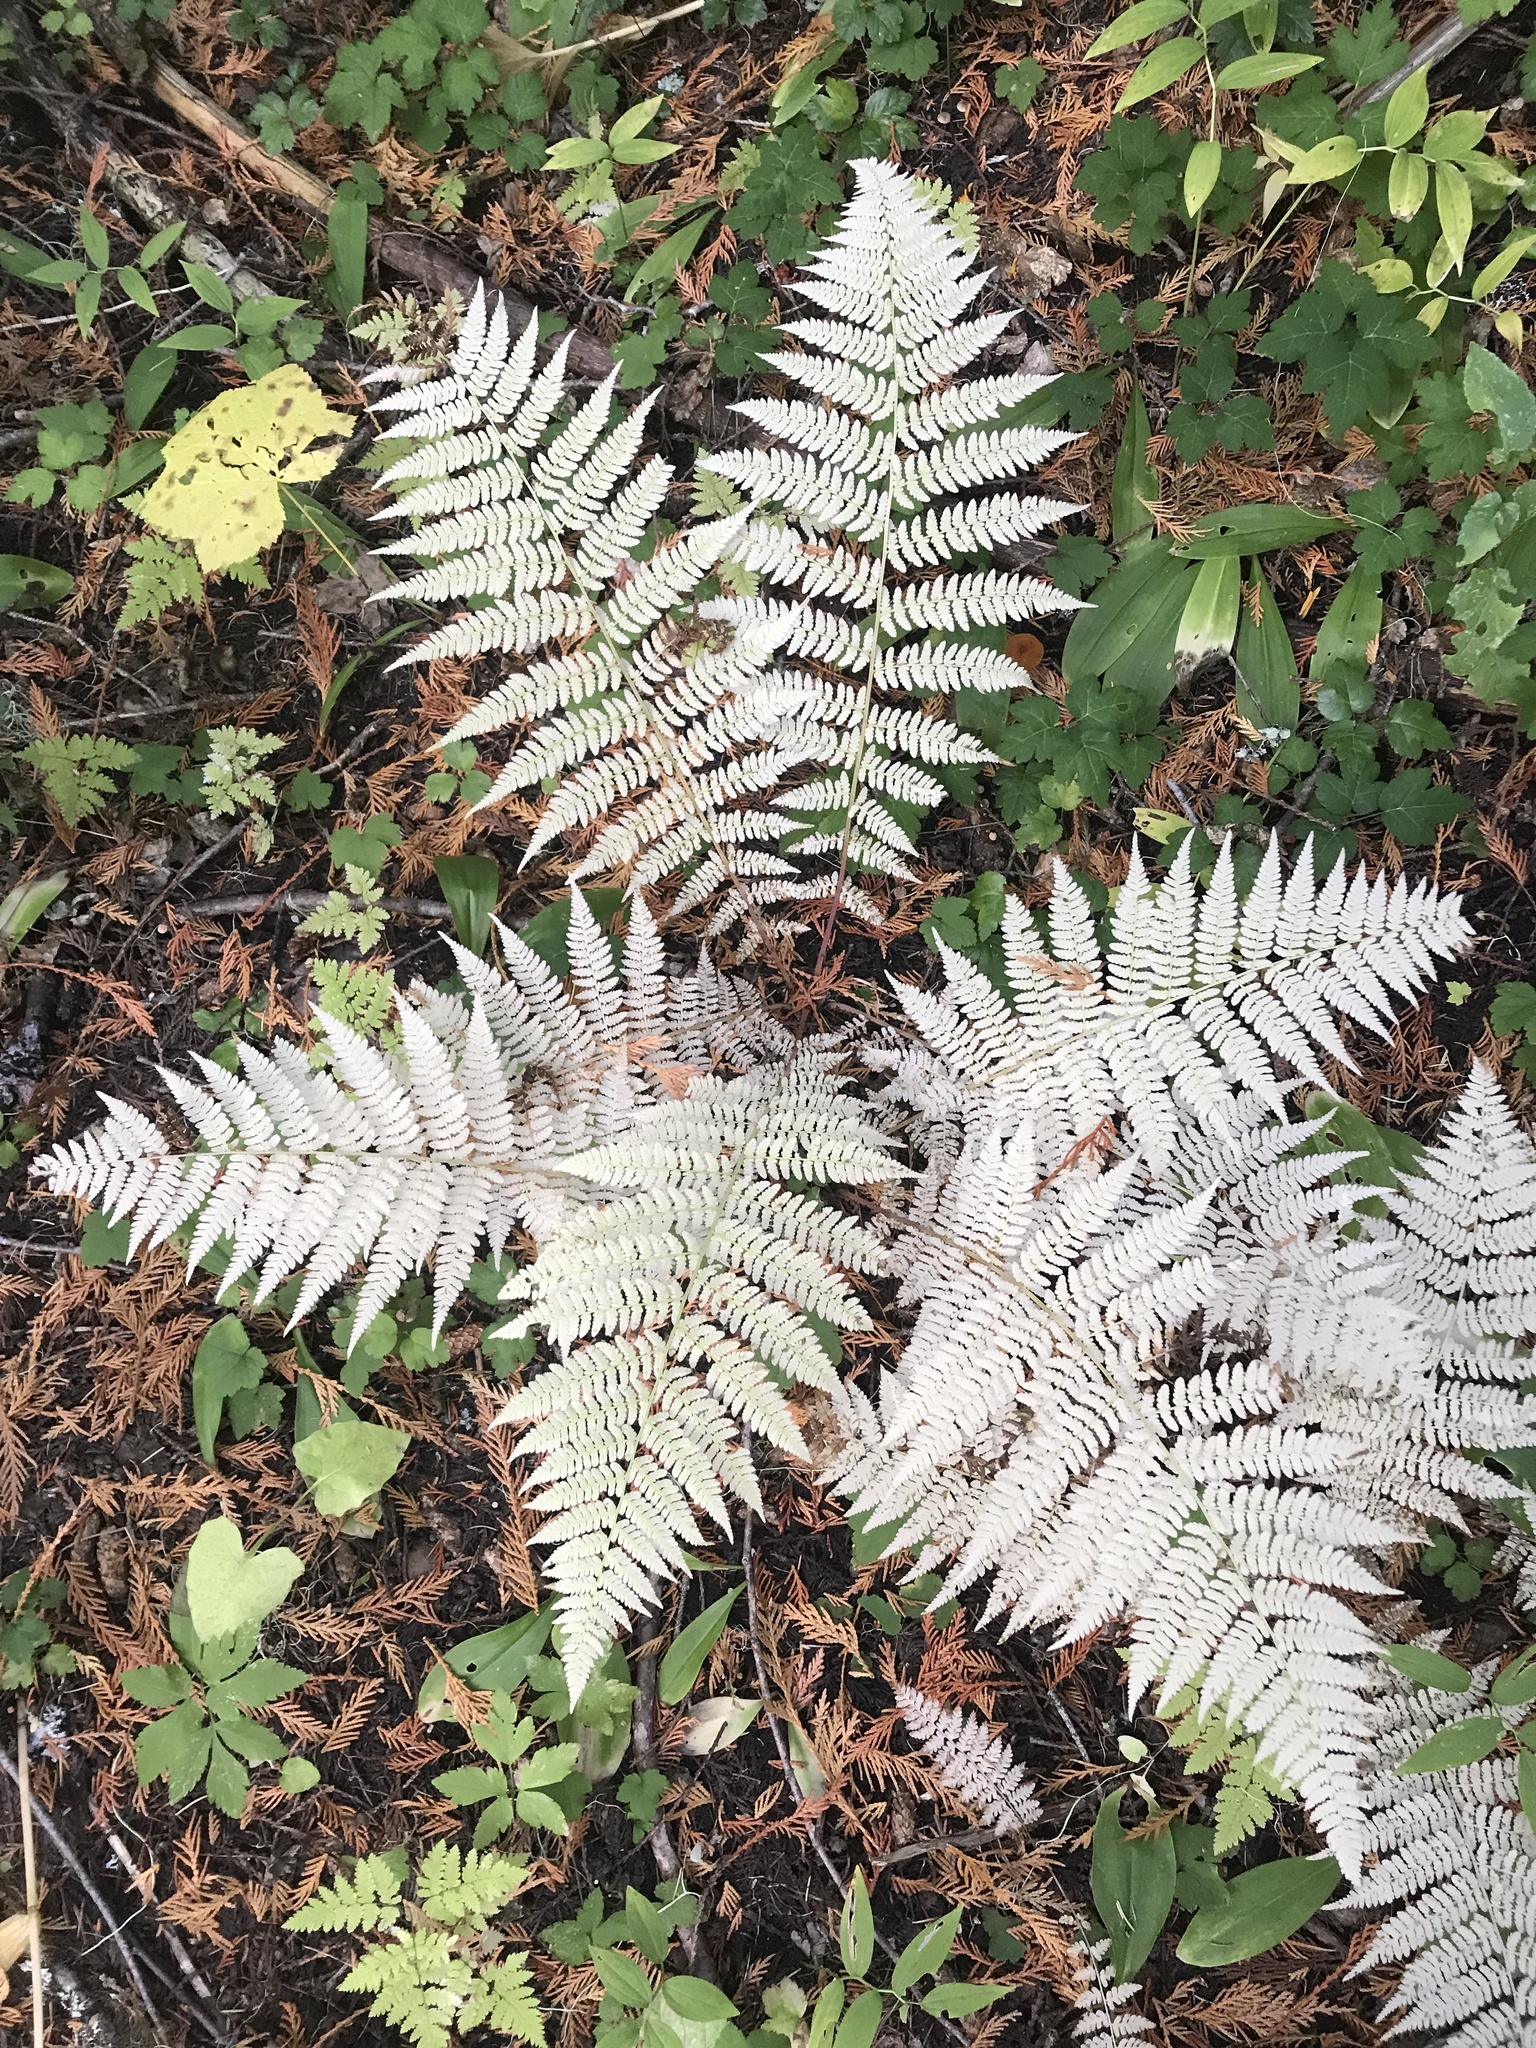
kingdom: Plantae
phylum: Tracheophyta
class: Polypodiopsida
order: Polypodiales
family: Athyriaceae
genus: Athyrium
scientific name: Athyrium filix-femina
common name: Lady fern
